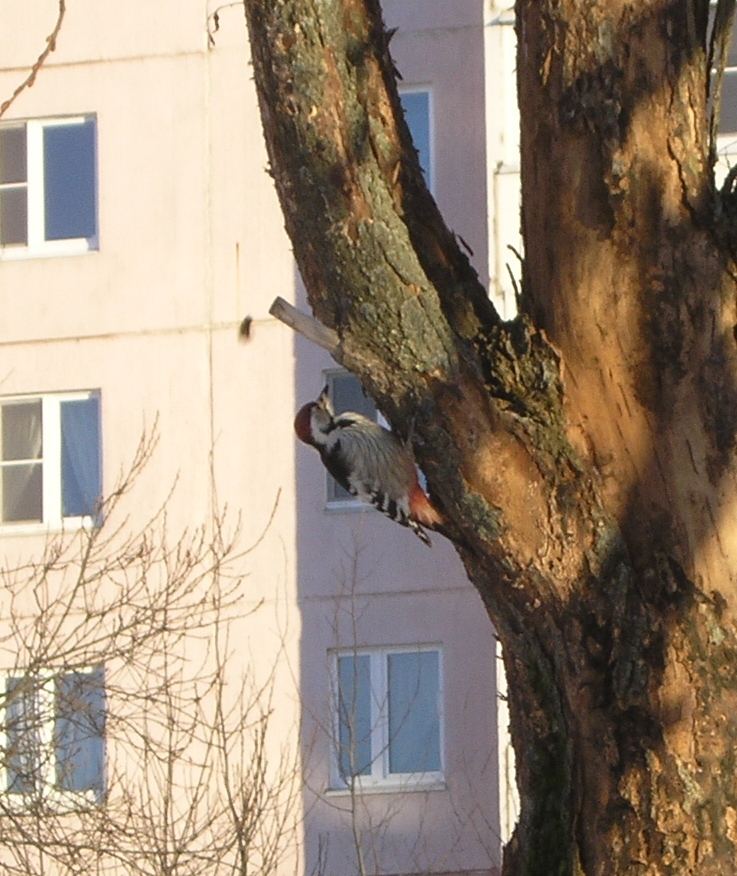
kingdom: Animalia
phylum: Chordata
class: Aves
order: Piciformes
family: Picidae
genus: Dendrocopos
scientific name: Dendrocopos leucotos
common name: White-backed woodpecker
